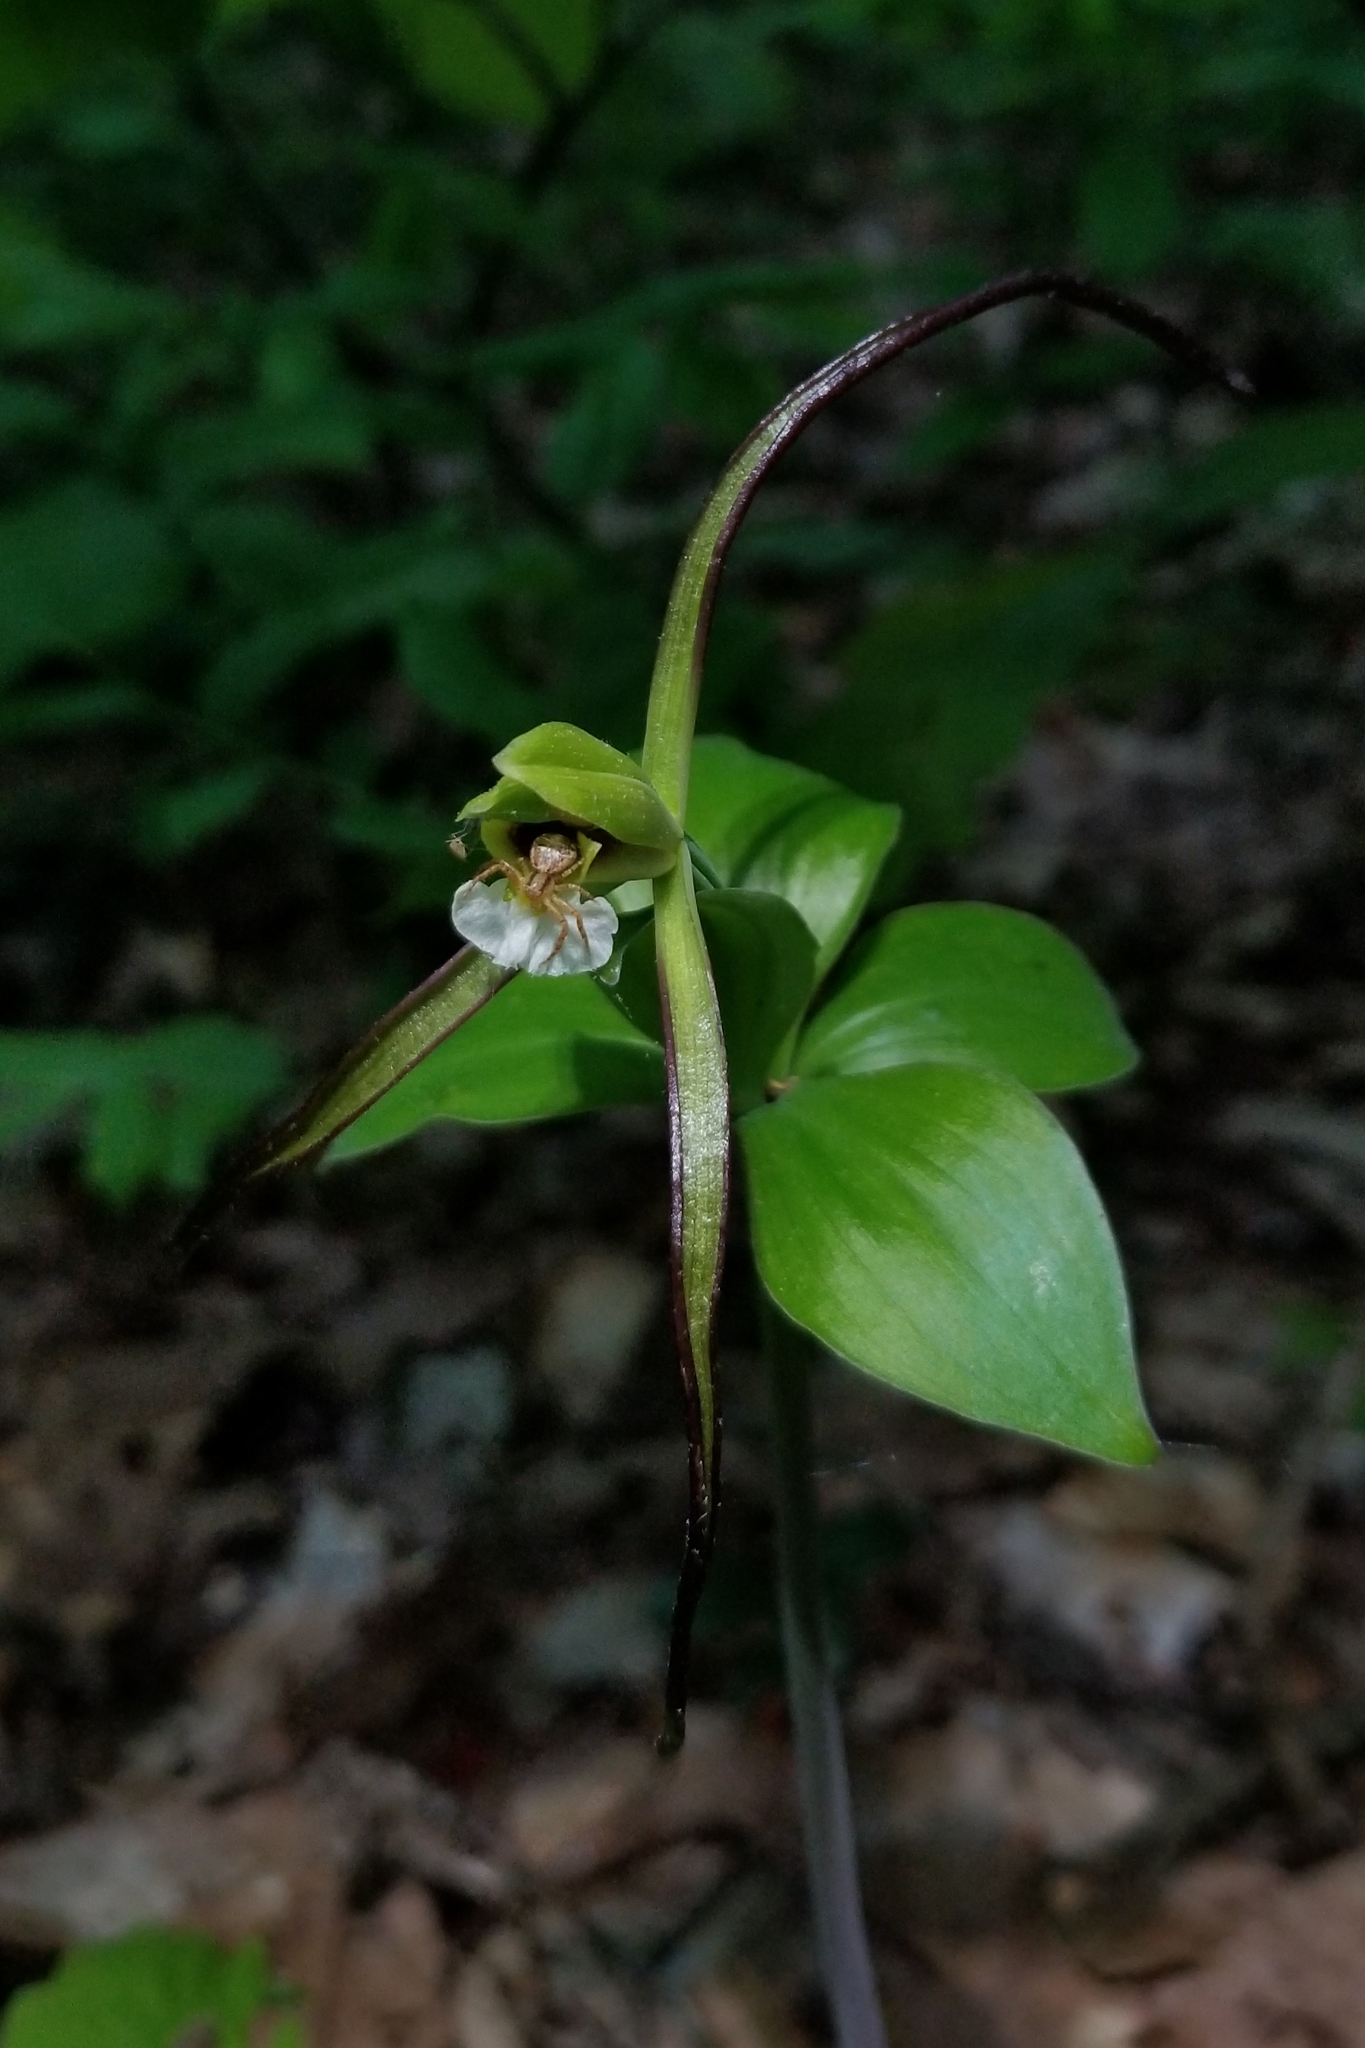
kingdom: Plantae
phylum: Tracheophyta
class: Liliopsida
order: Asparagales
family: Orchidaceae
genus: Isotria
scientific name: Isotria verticillata
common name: Large whorled pogonia
